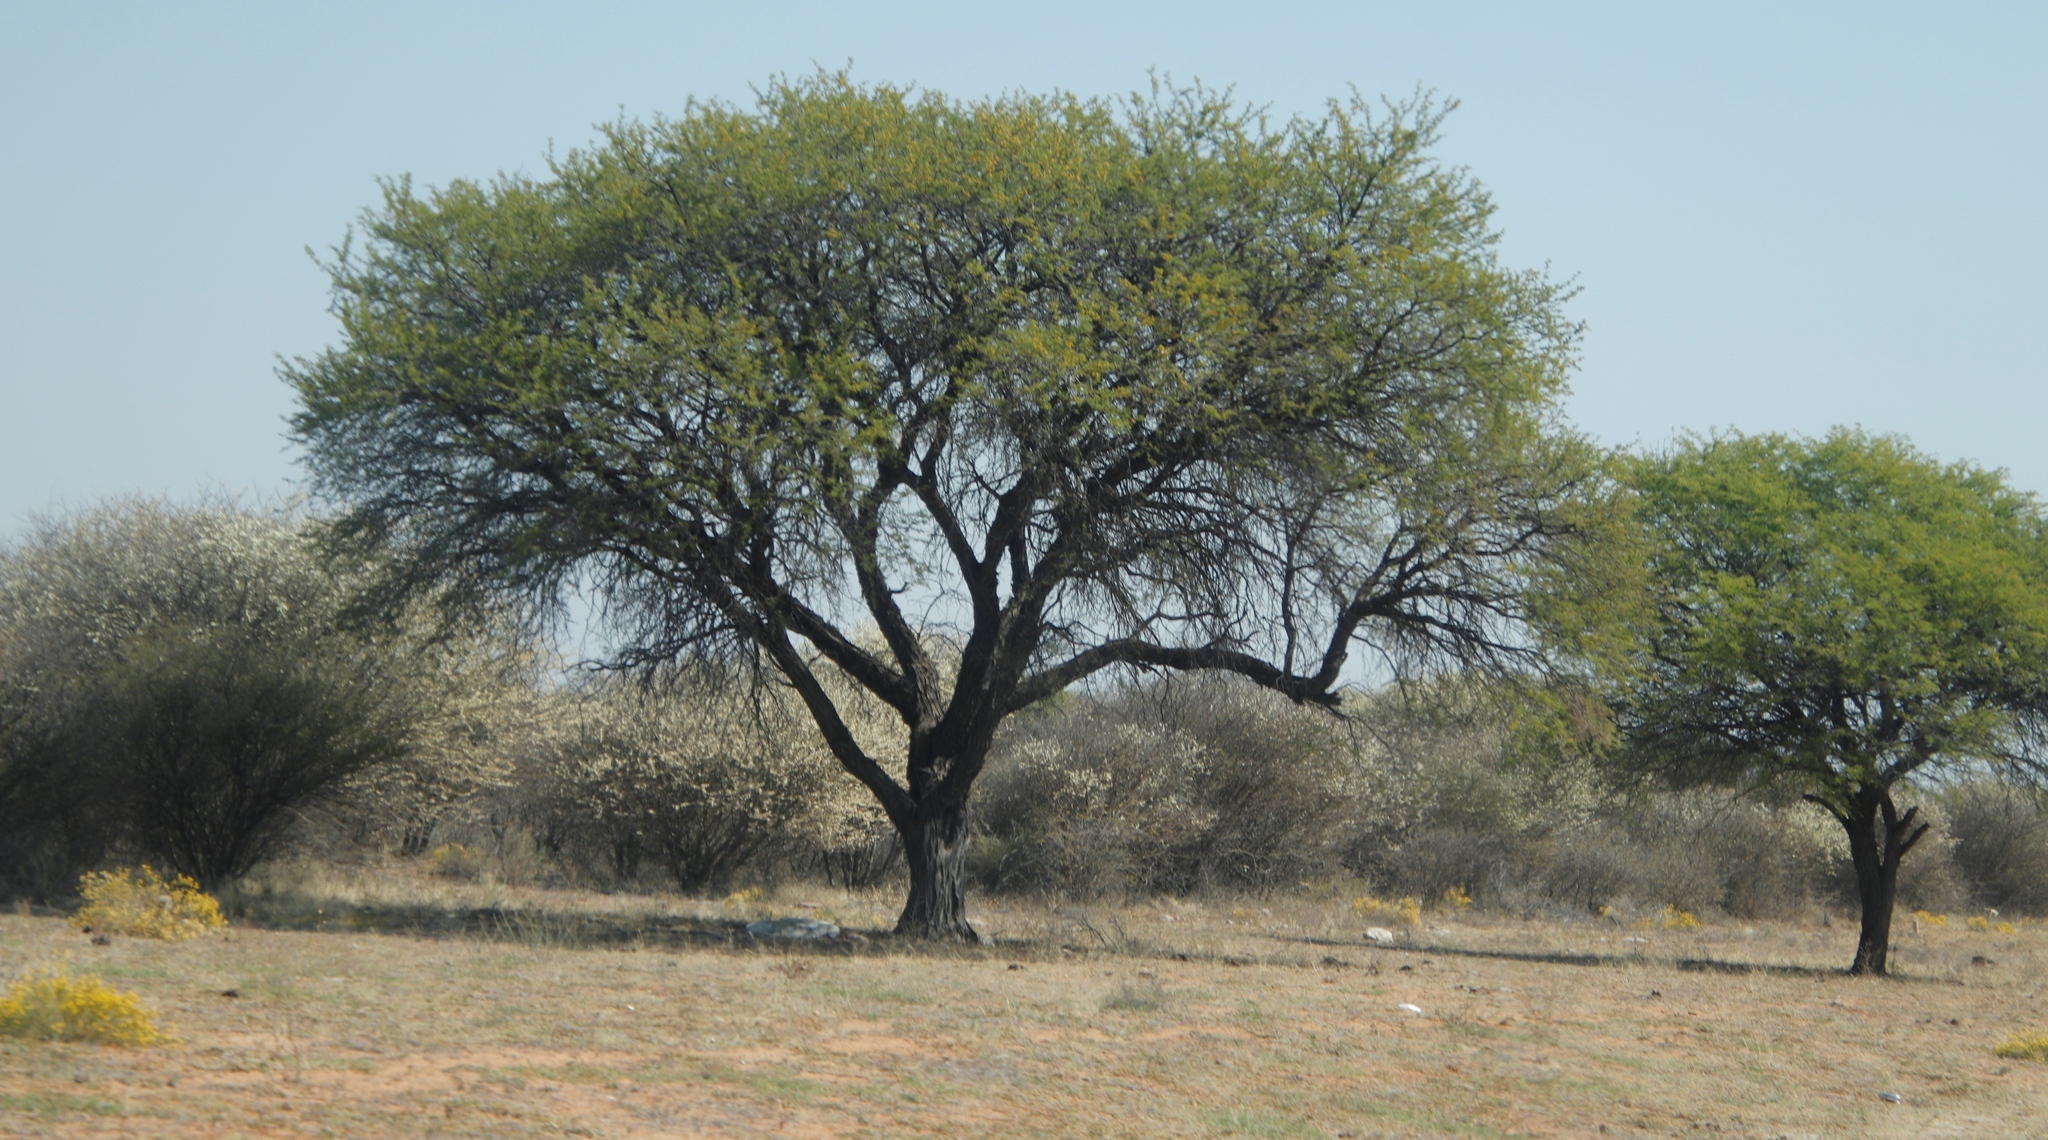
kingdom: Plantae
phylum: Tracheophyta
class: Magnoliopsida
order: Malvales
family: Thymelaeaceae
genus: Gnidia
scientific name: Gnidia polycephala
